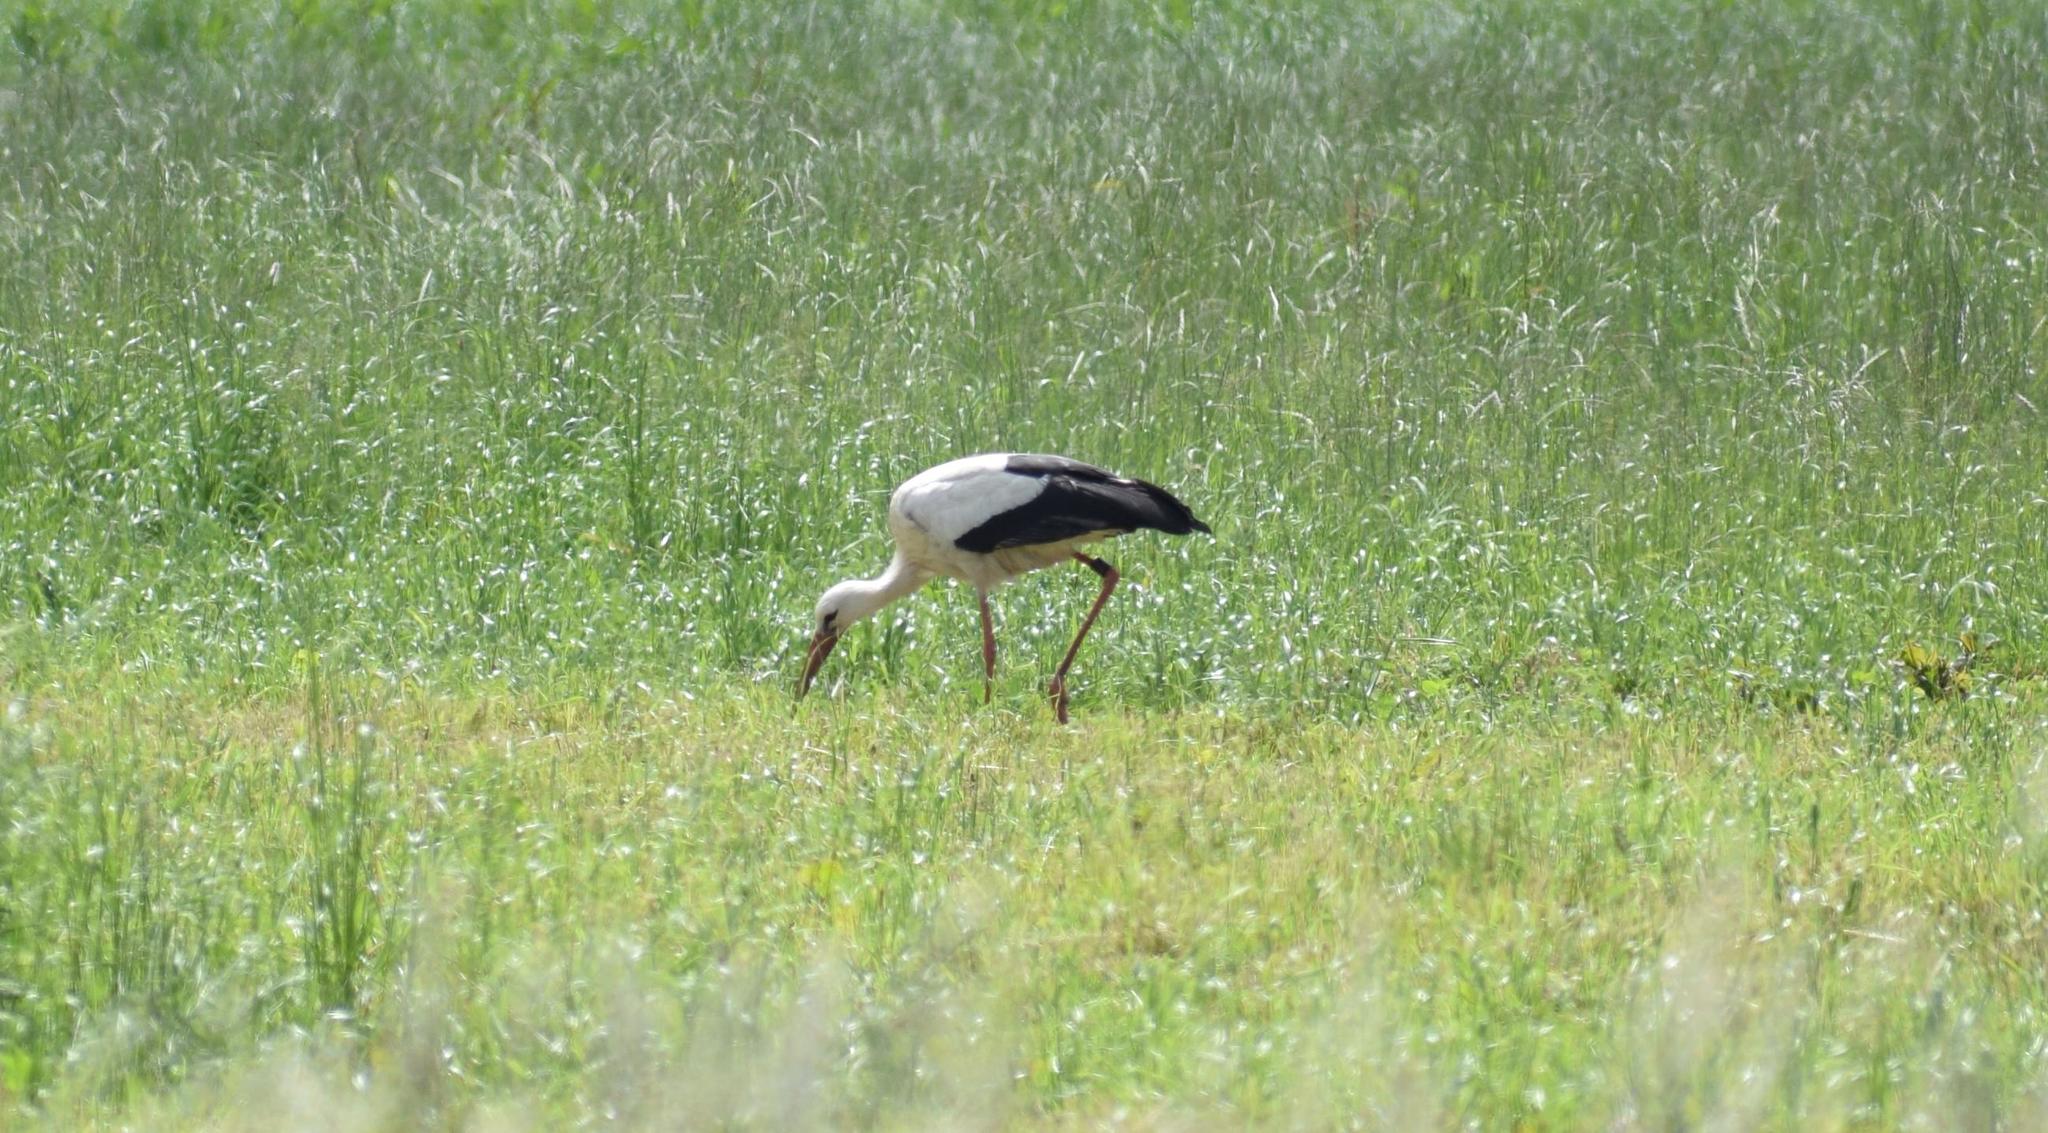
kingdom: Animalia
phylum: Chordata
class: Aves
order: Ciconiiformes
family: Ciconiidae
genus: Ciconia
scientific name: Ciconia ciconia
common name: White stork
